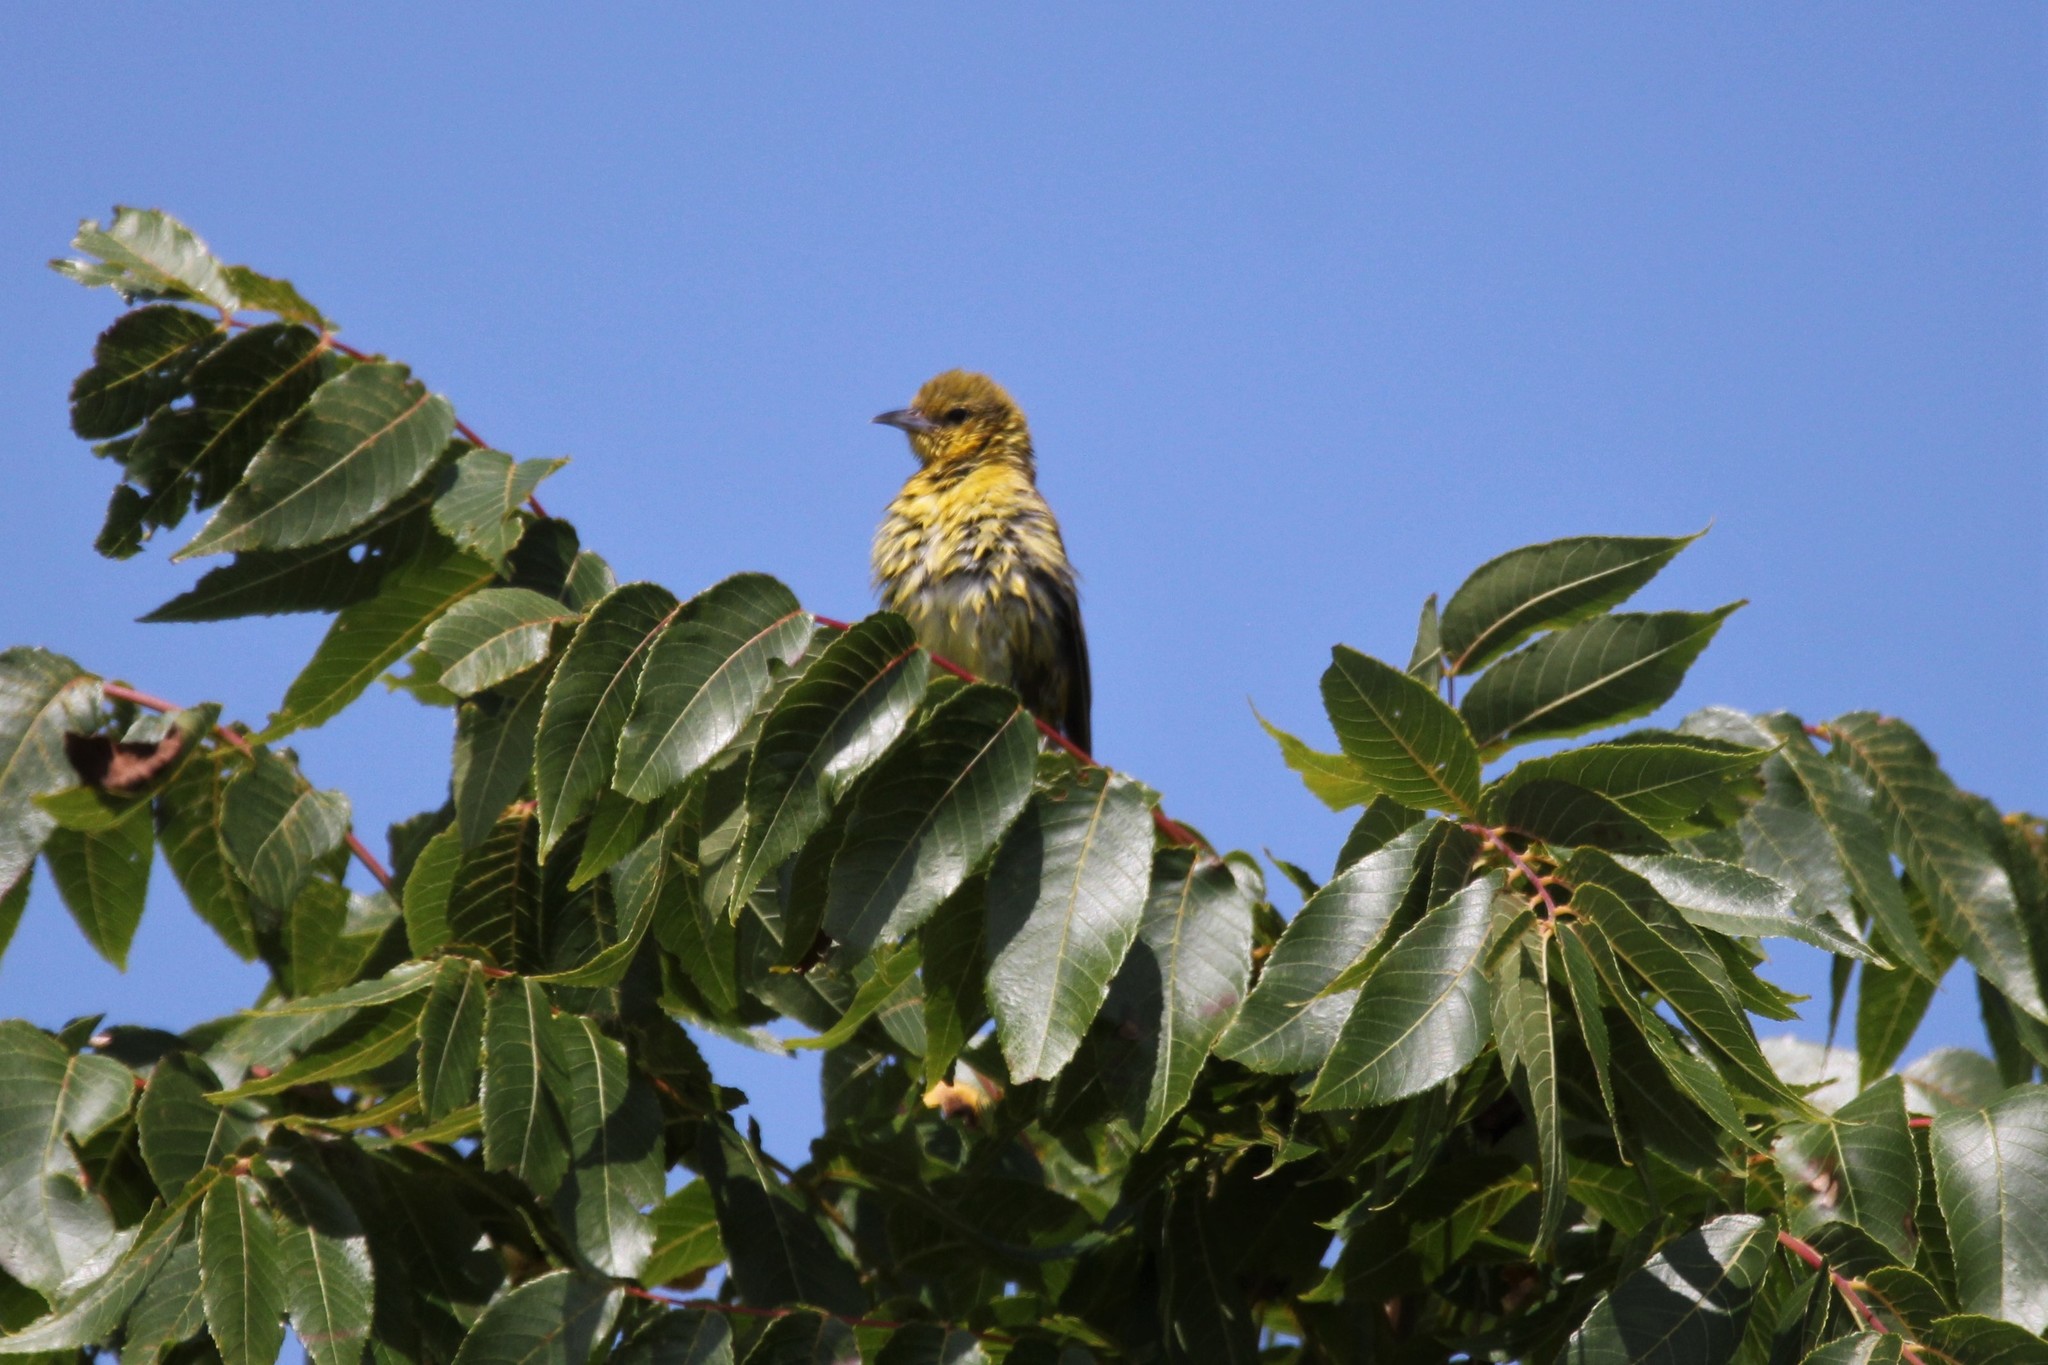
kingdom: Animalia
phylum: Chordata
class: Aves
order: Passeriformes
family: Icteridae
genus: Icterus
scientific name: Icterus spurius
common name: Orchard oriole
